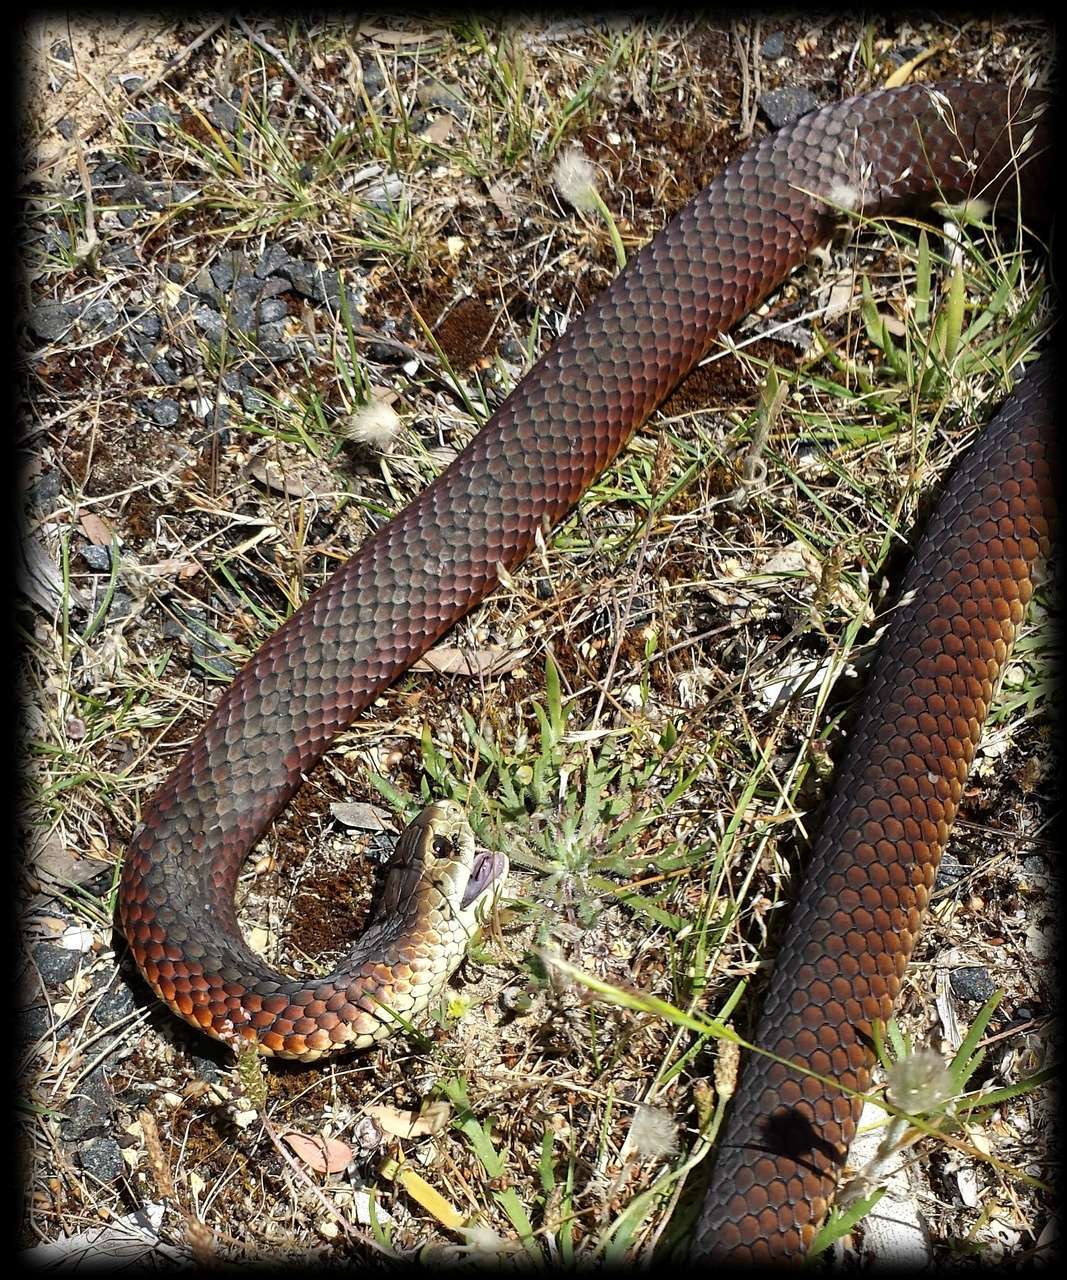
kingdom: Animalia
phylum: Chordata
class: Squamata
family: Elapidae
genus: Austrelaps
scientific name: Austrelaps superbus
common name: Copperhead snake
